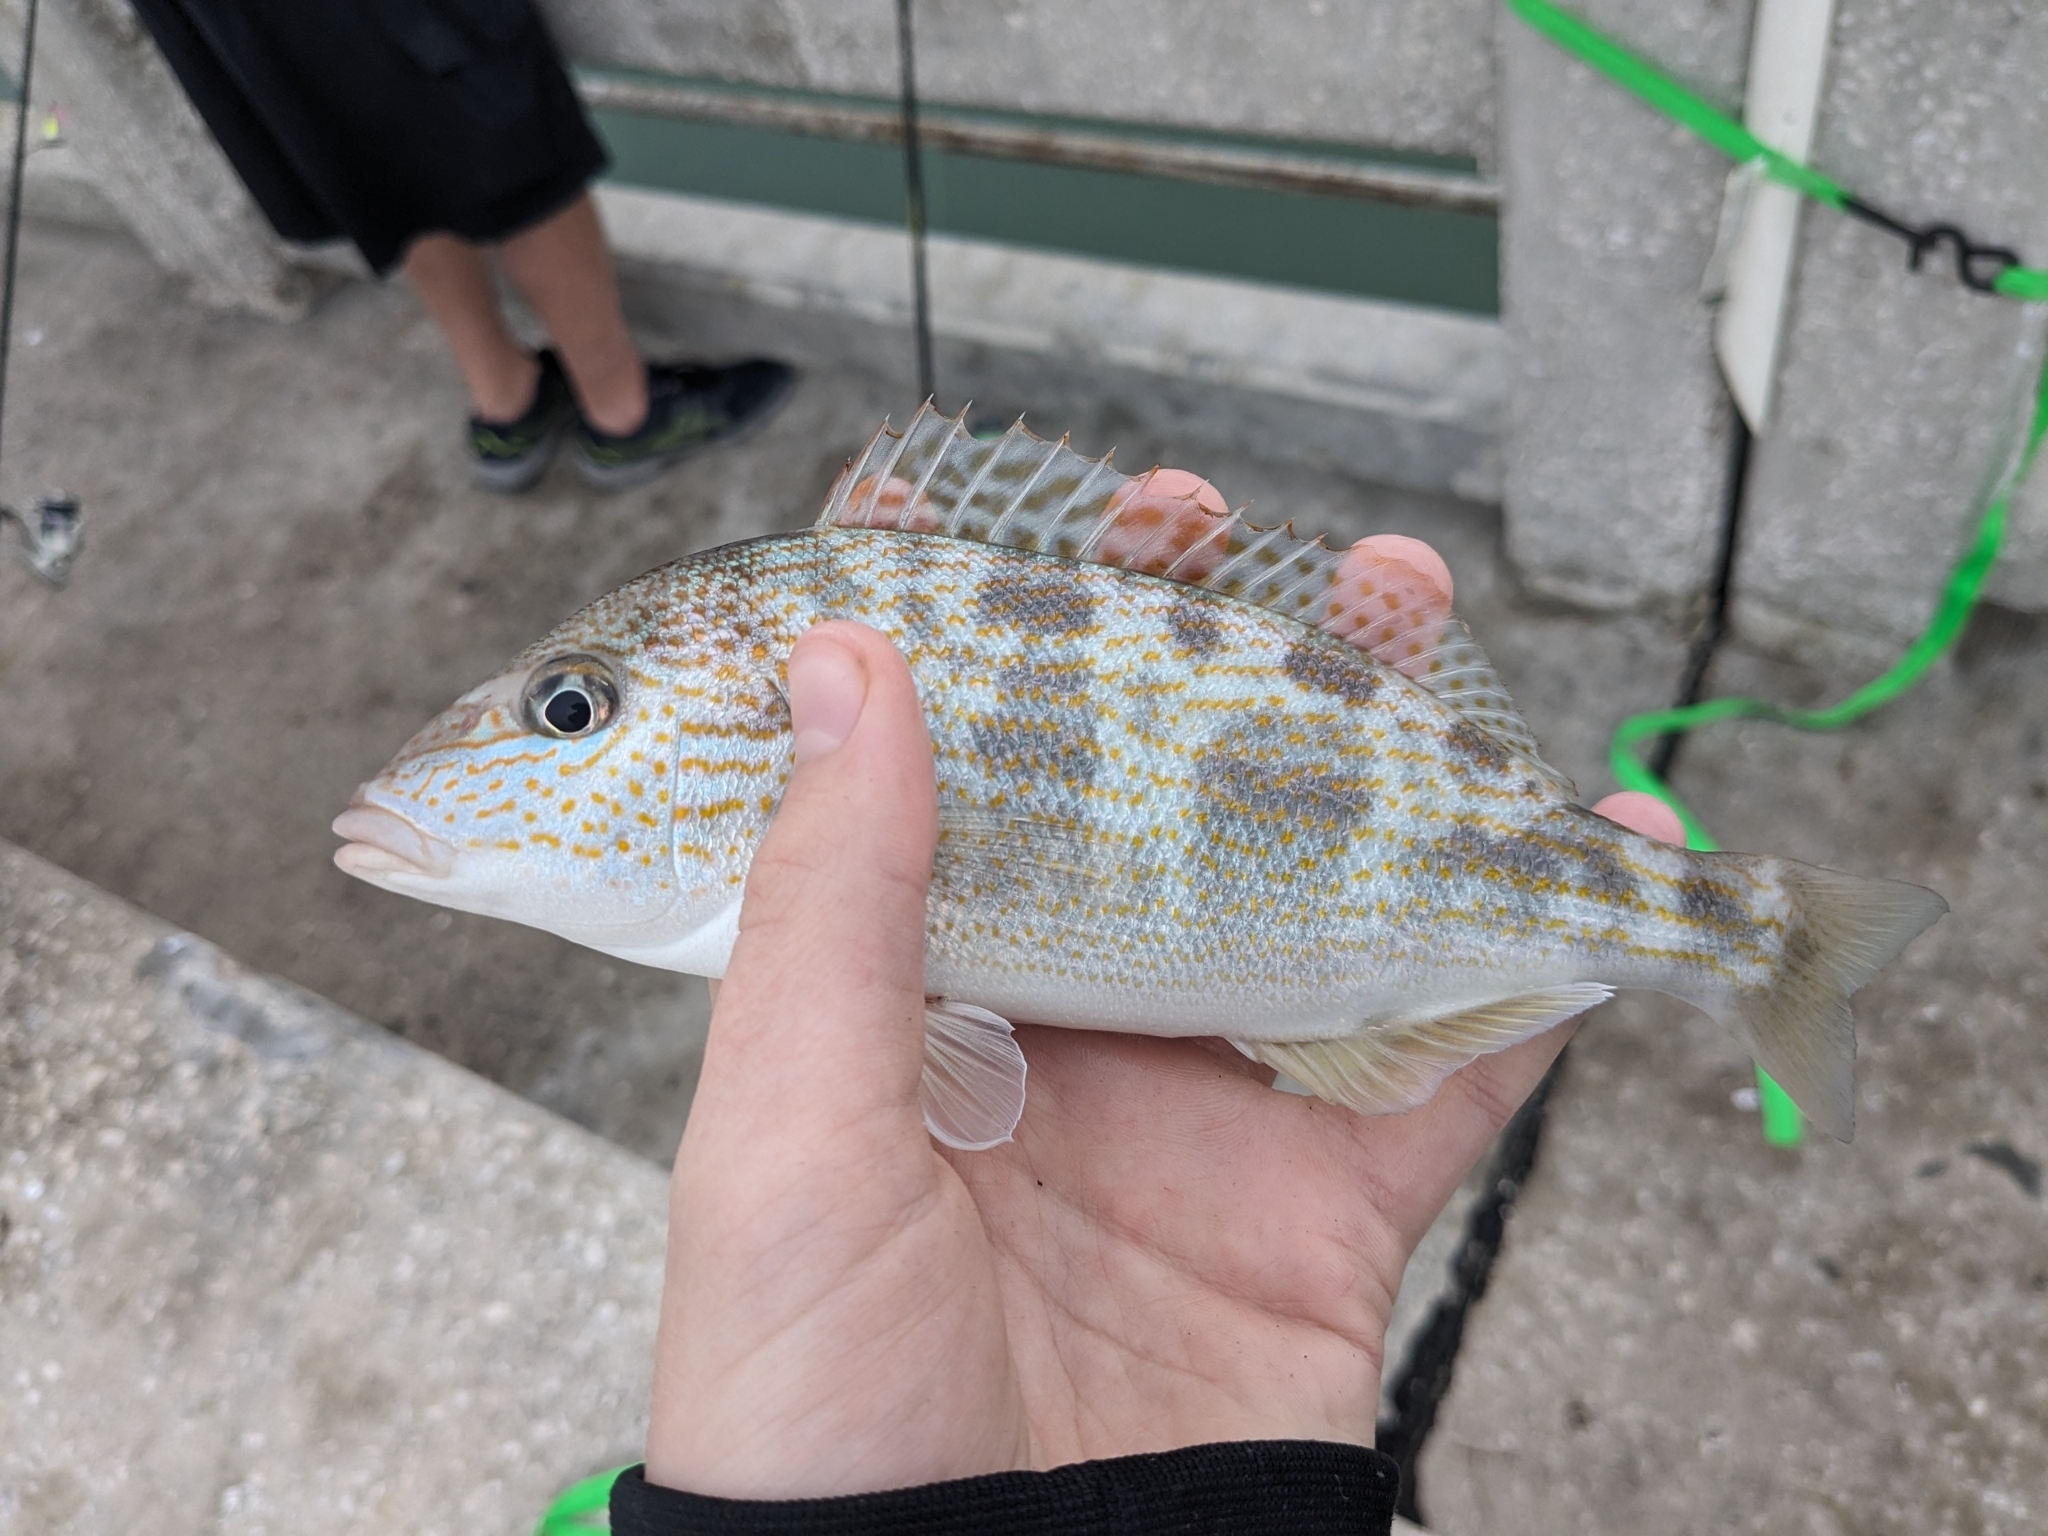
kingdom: Animalia
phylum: Chordata
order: Perciformes
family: Haemulidae
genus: Orthopristis
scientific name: Orthopristis chrysoptera
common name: Pigfish
